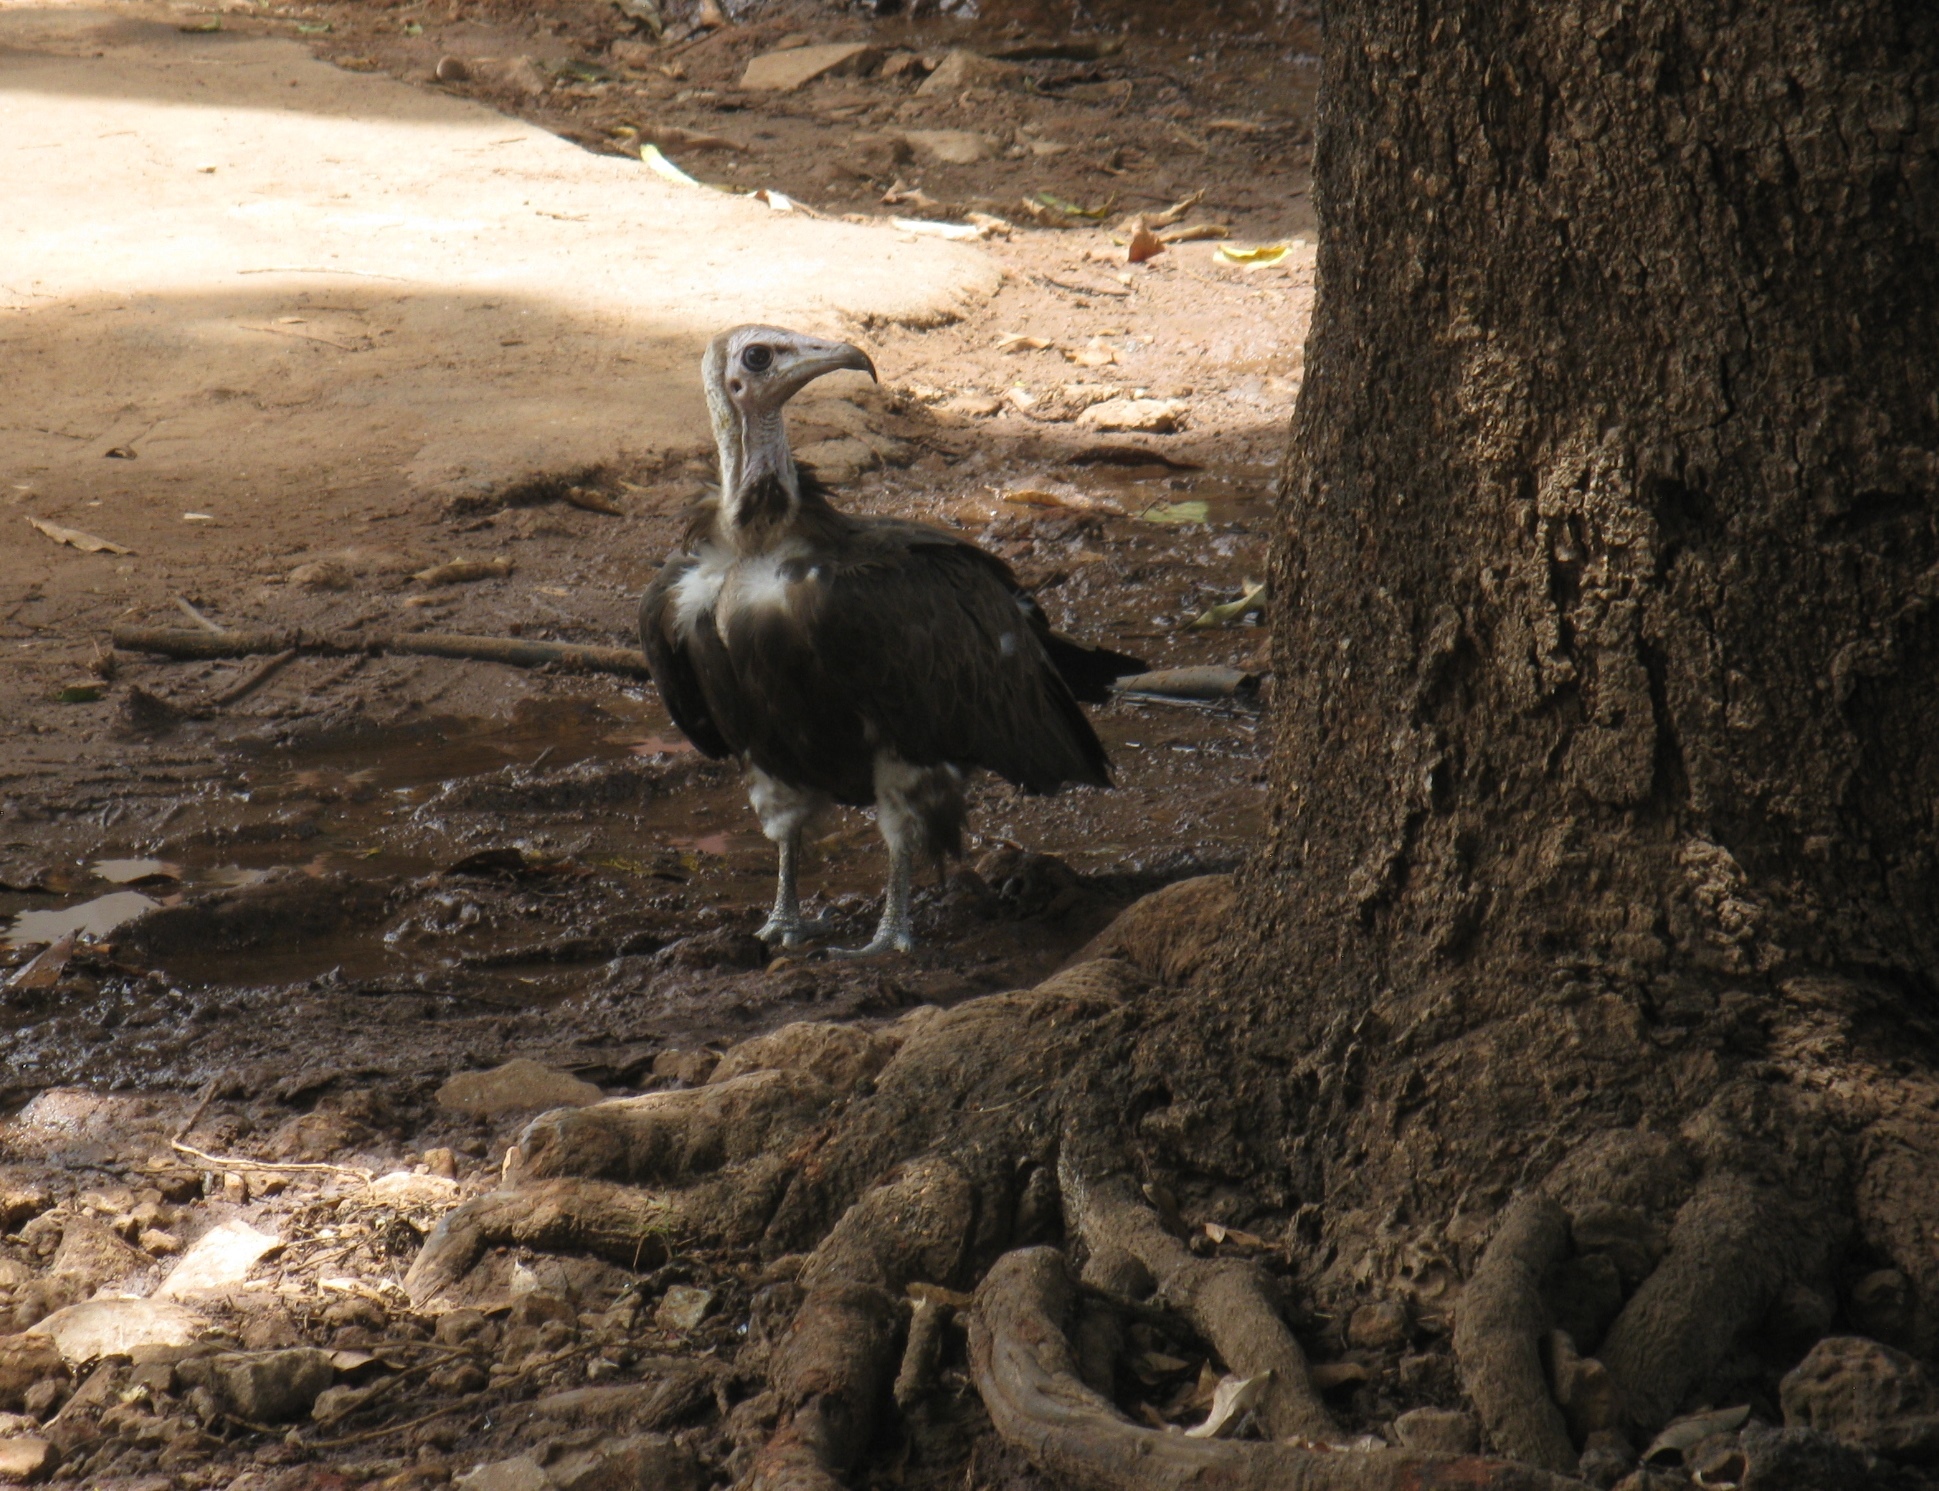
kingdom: Animalia
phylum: Chordata
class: Aves
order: Accipitriformes
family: Accipitridae
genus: Necrosyrtes
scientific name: Necrosyrtes monachus
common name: Hooded vulture
